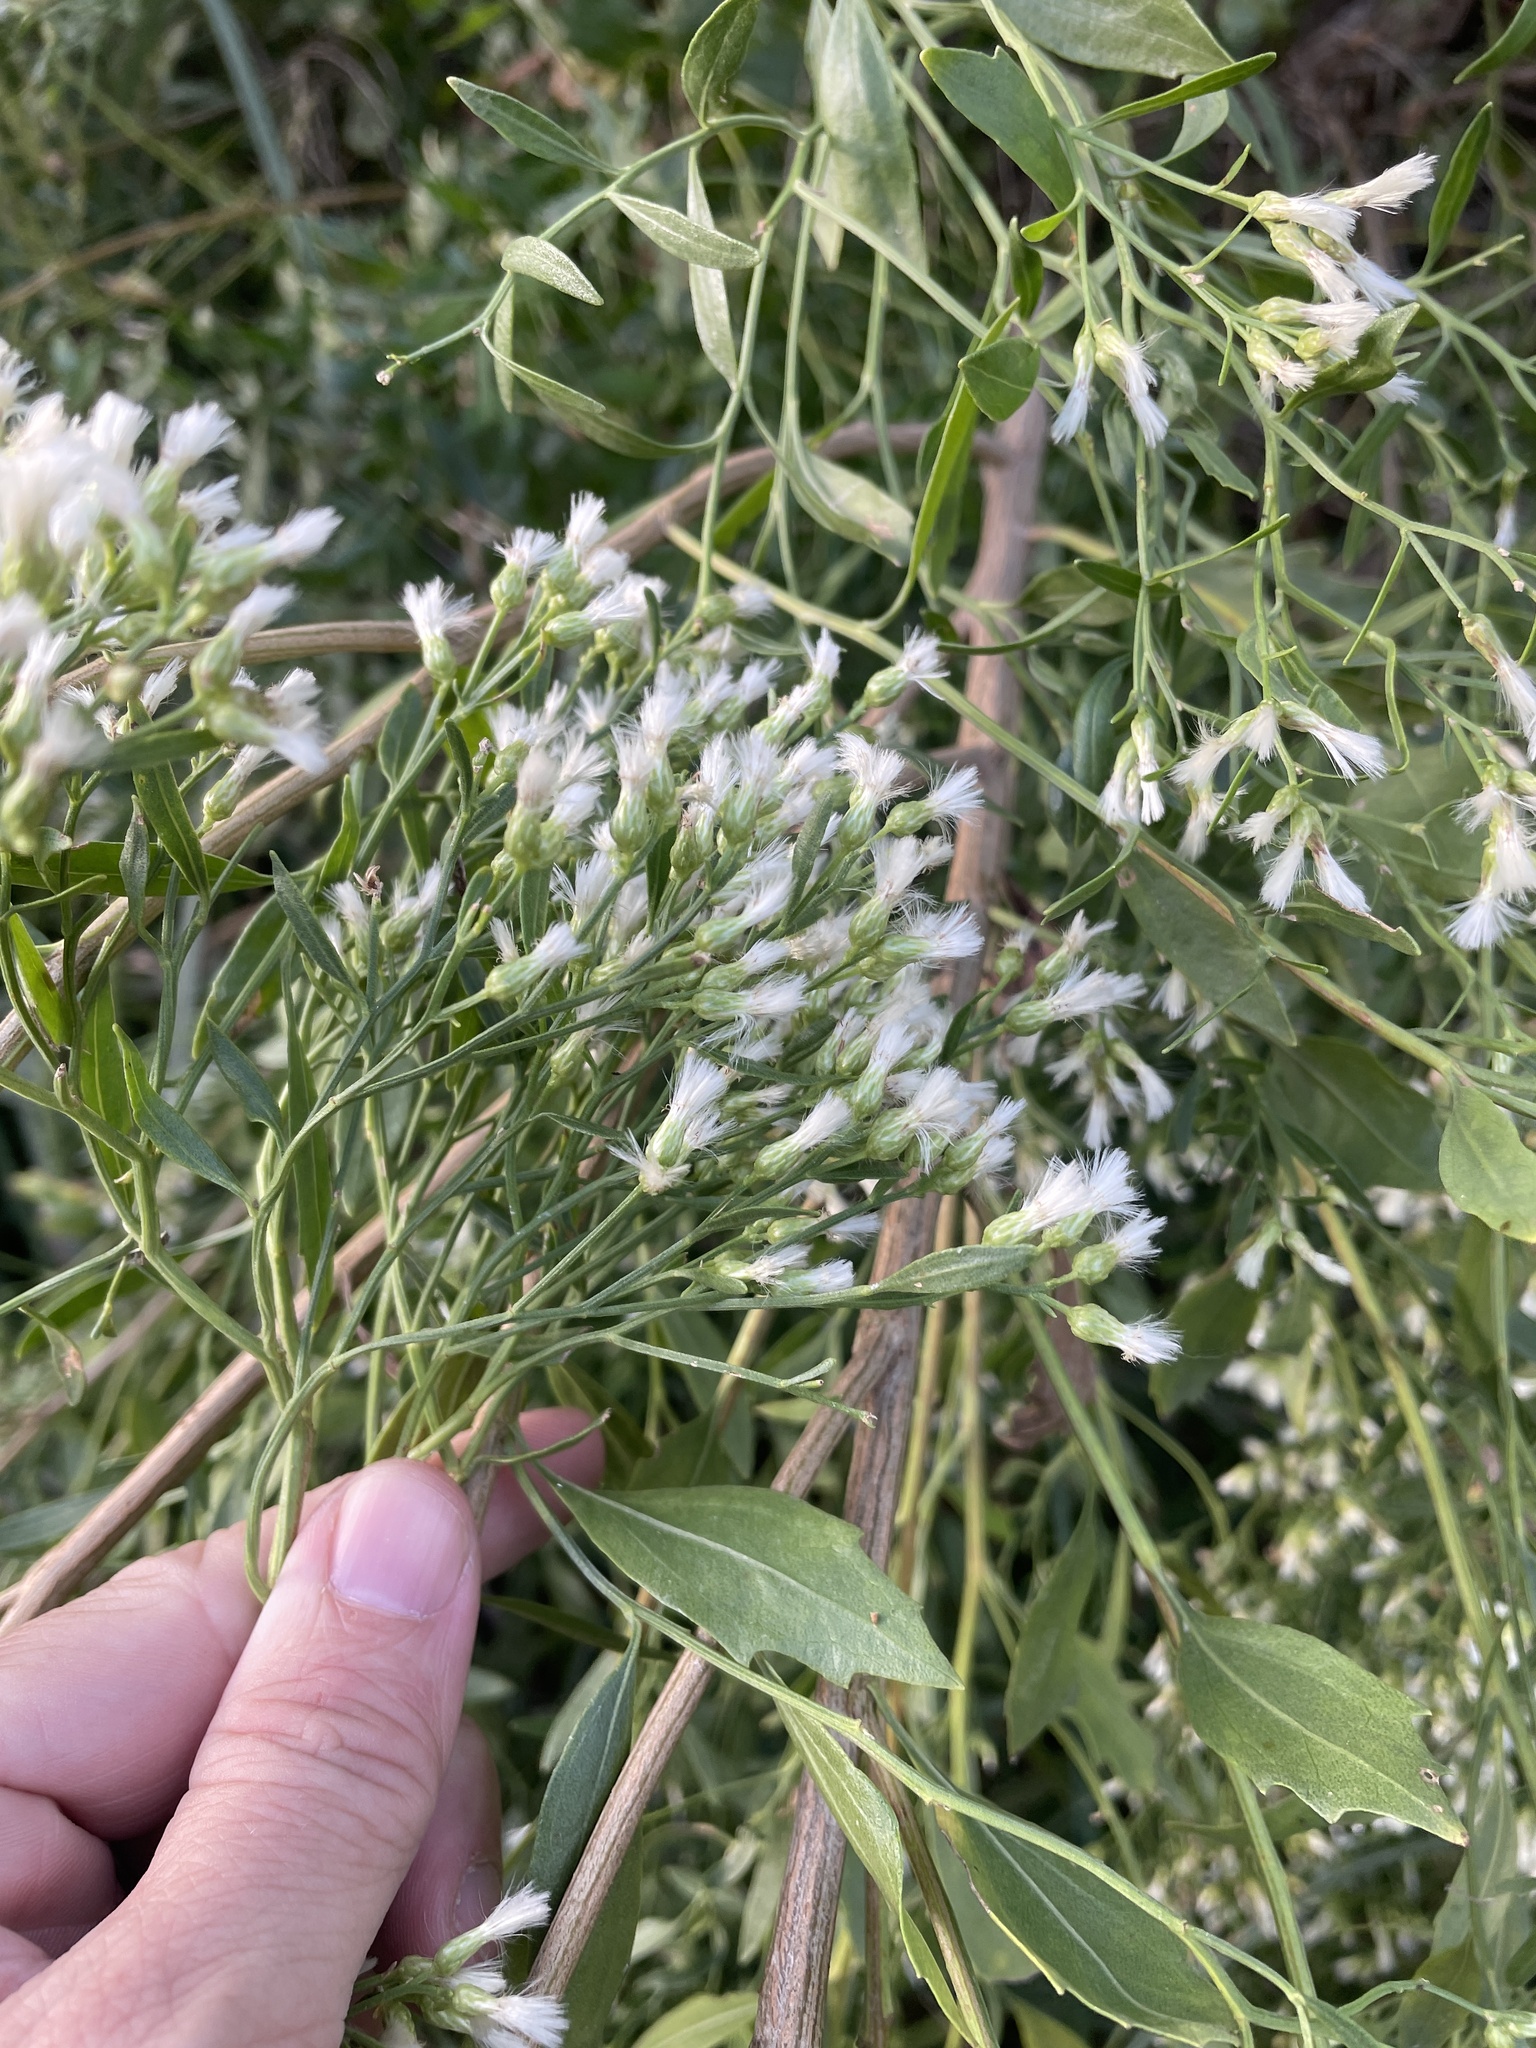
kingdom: Plantae
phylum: Tracheophyta
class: Magnoliopsida
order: Asterales
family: Asteraceae
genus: Baccharis
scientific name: Baccharis halimifolia
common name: Eastern baccharis
